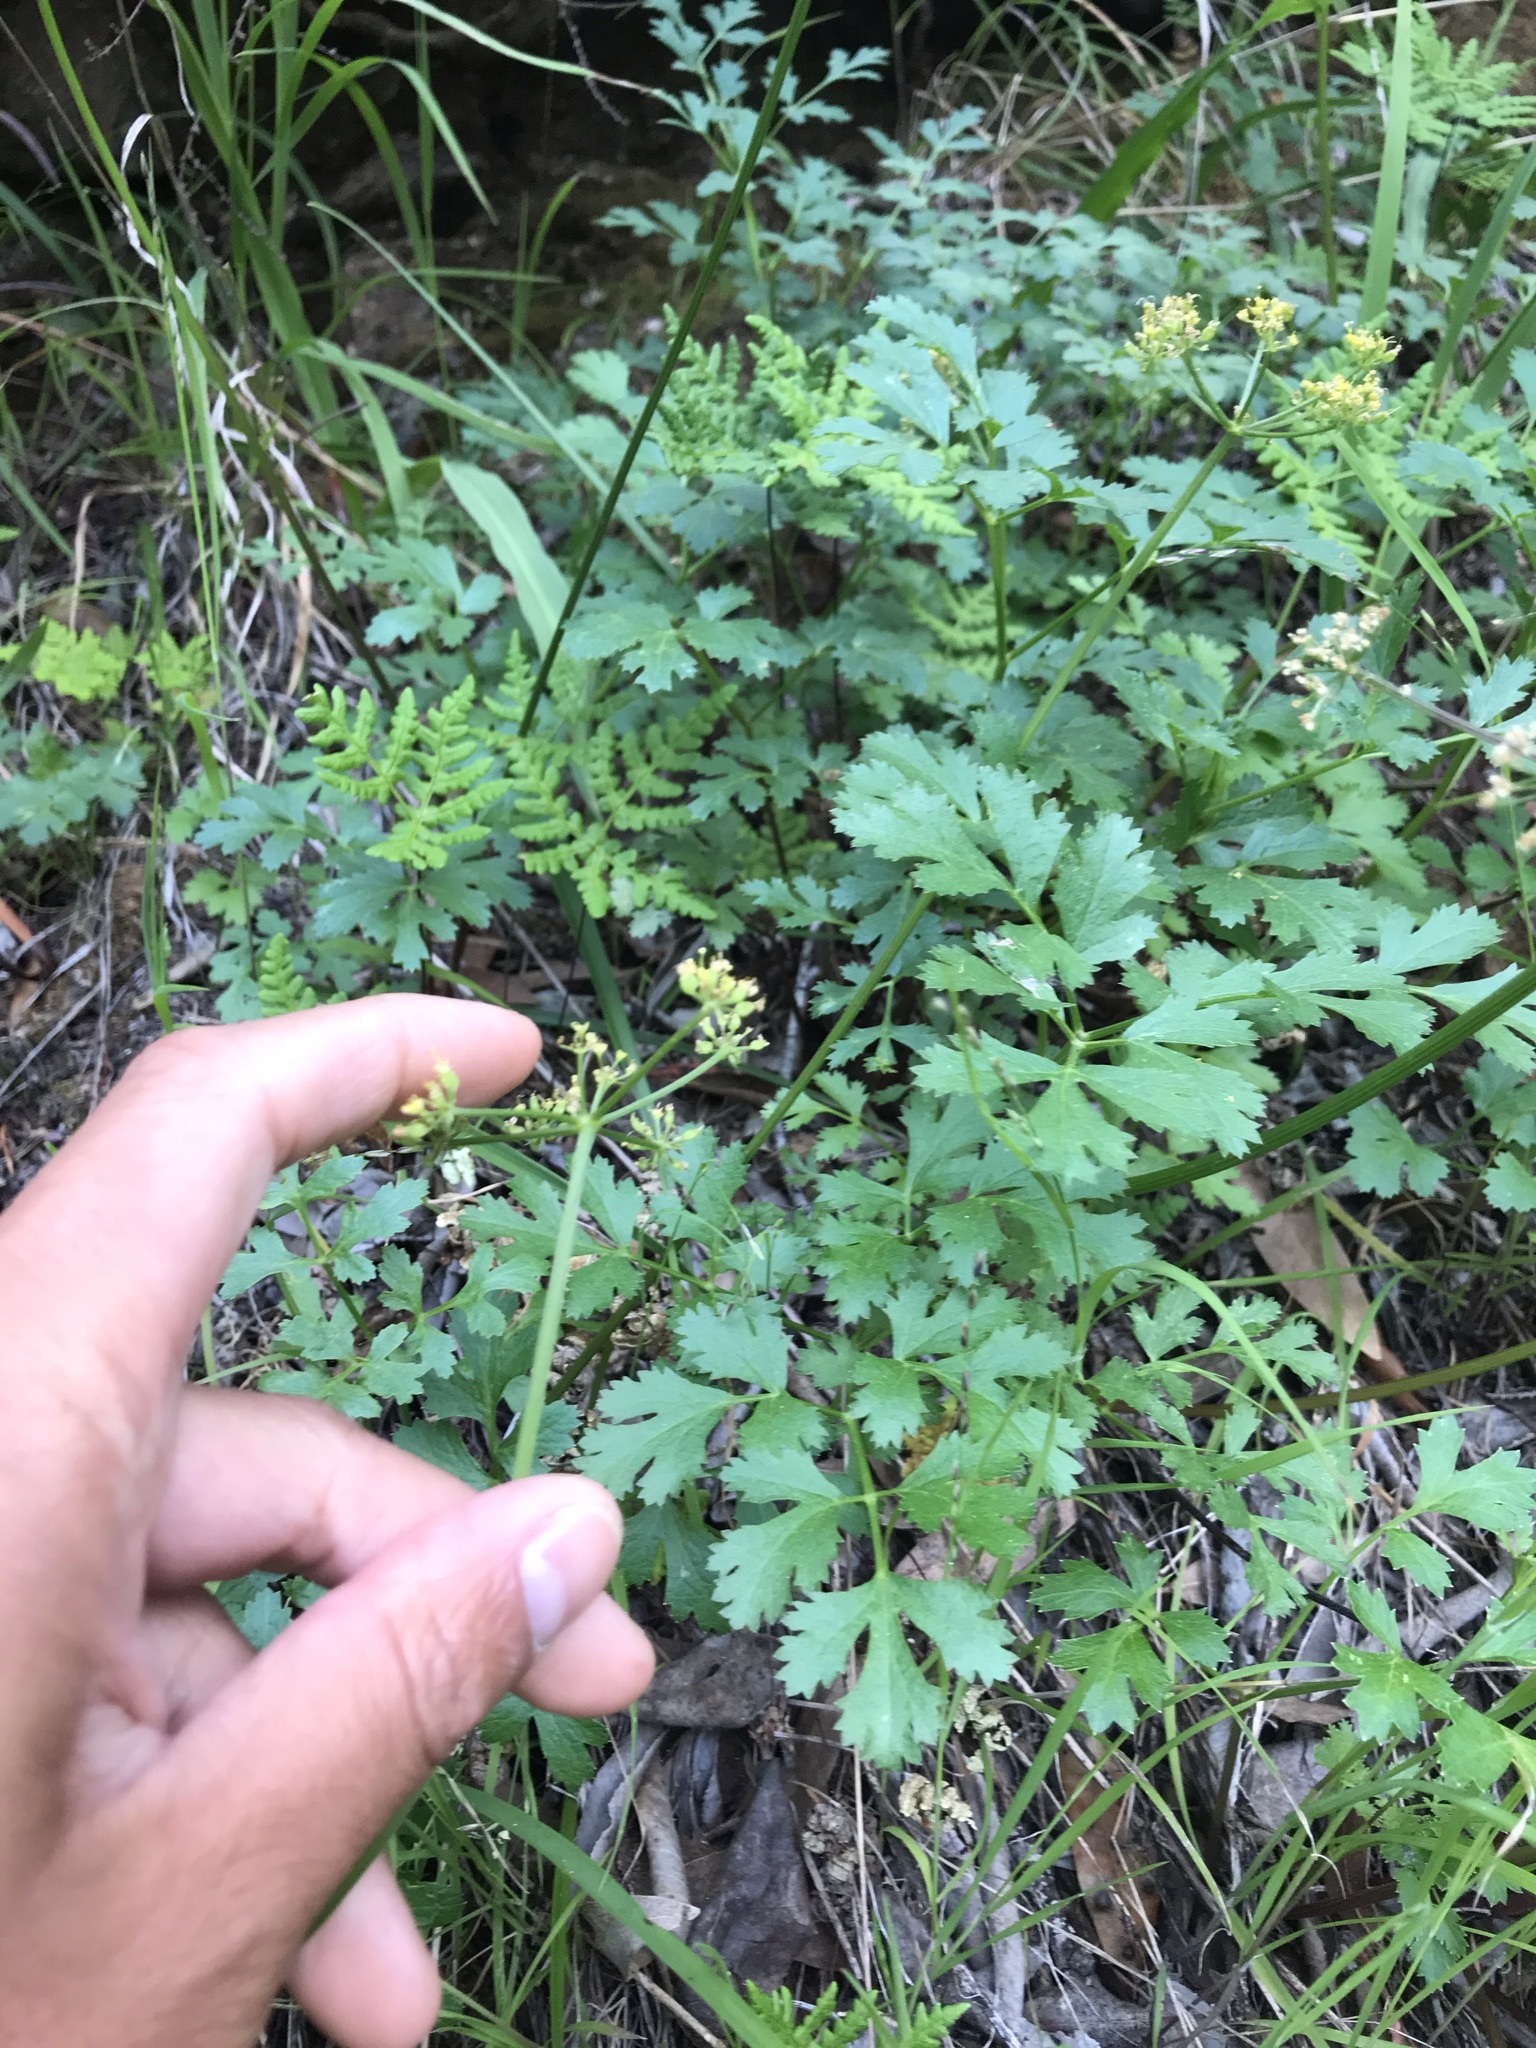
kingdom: Plantae
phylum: Tracheophyta
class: Magnoliopsida
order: Apiales
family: Apiaceae
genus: Tauschia
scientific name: Tauschia kelloggii
